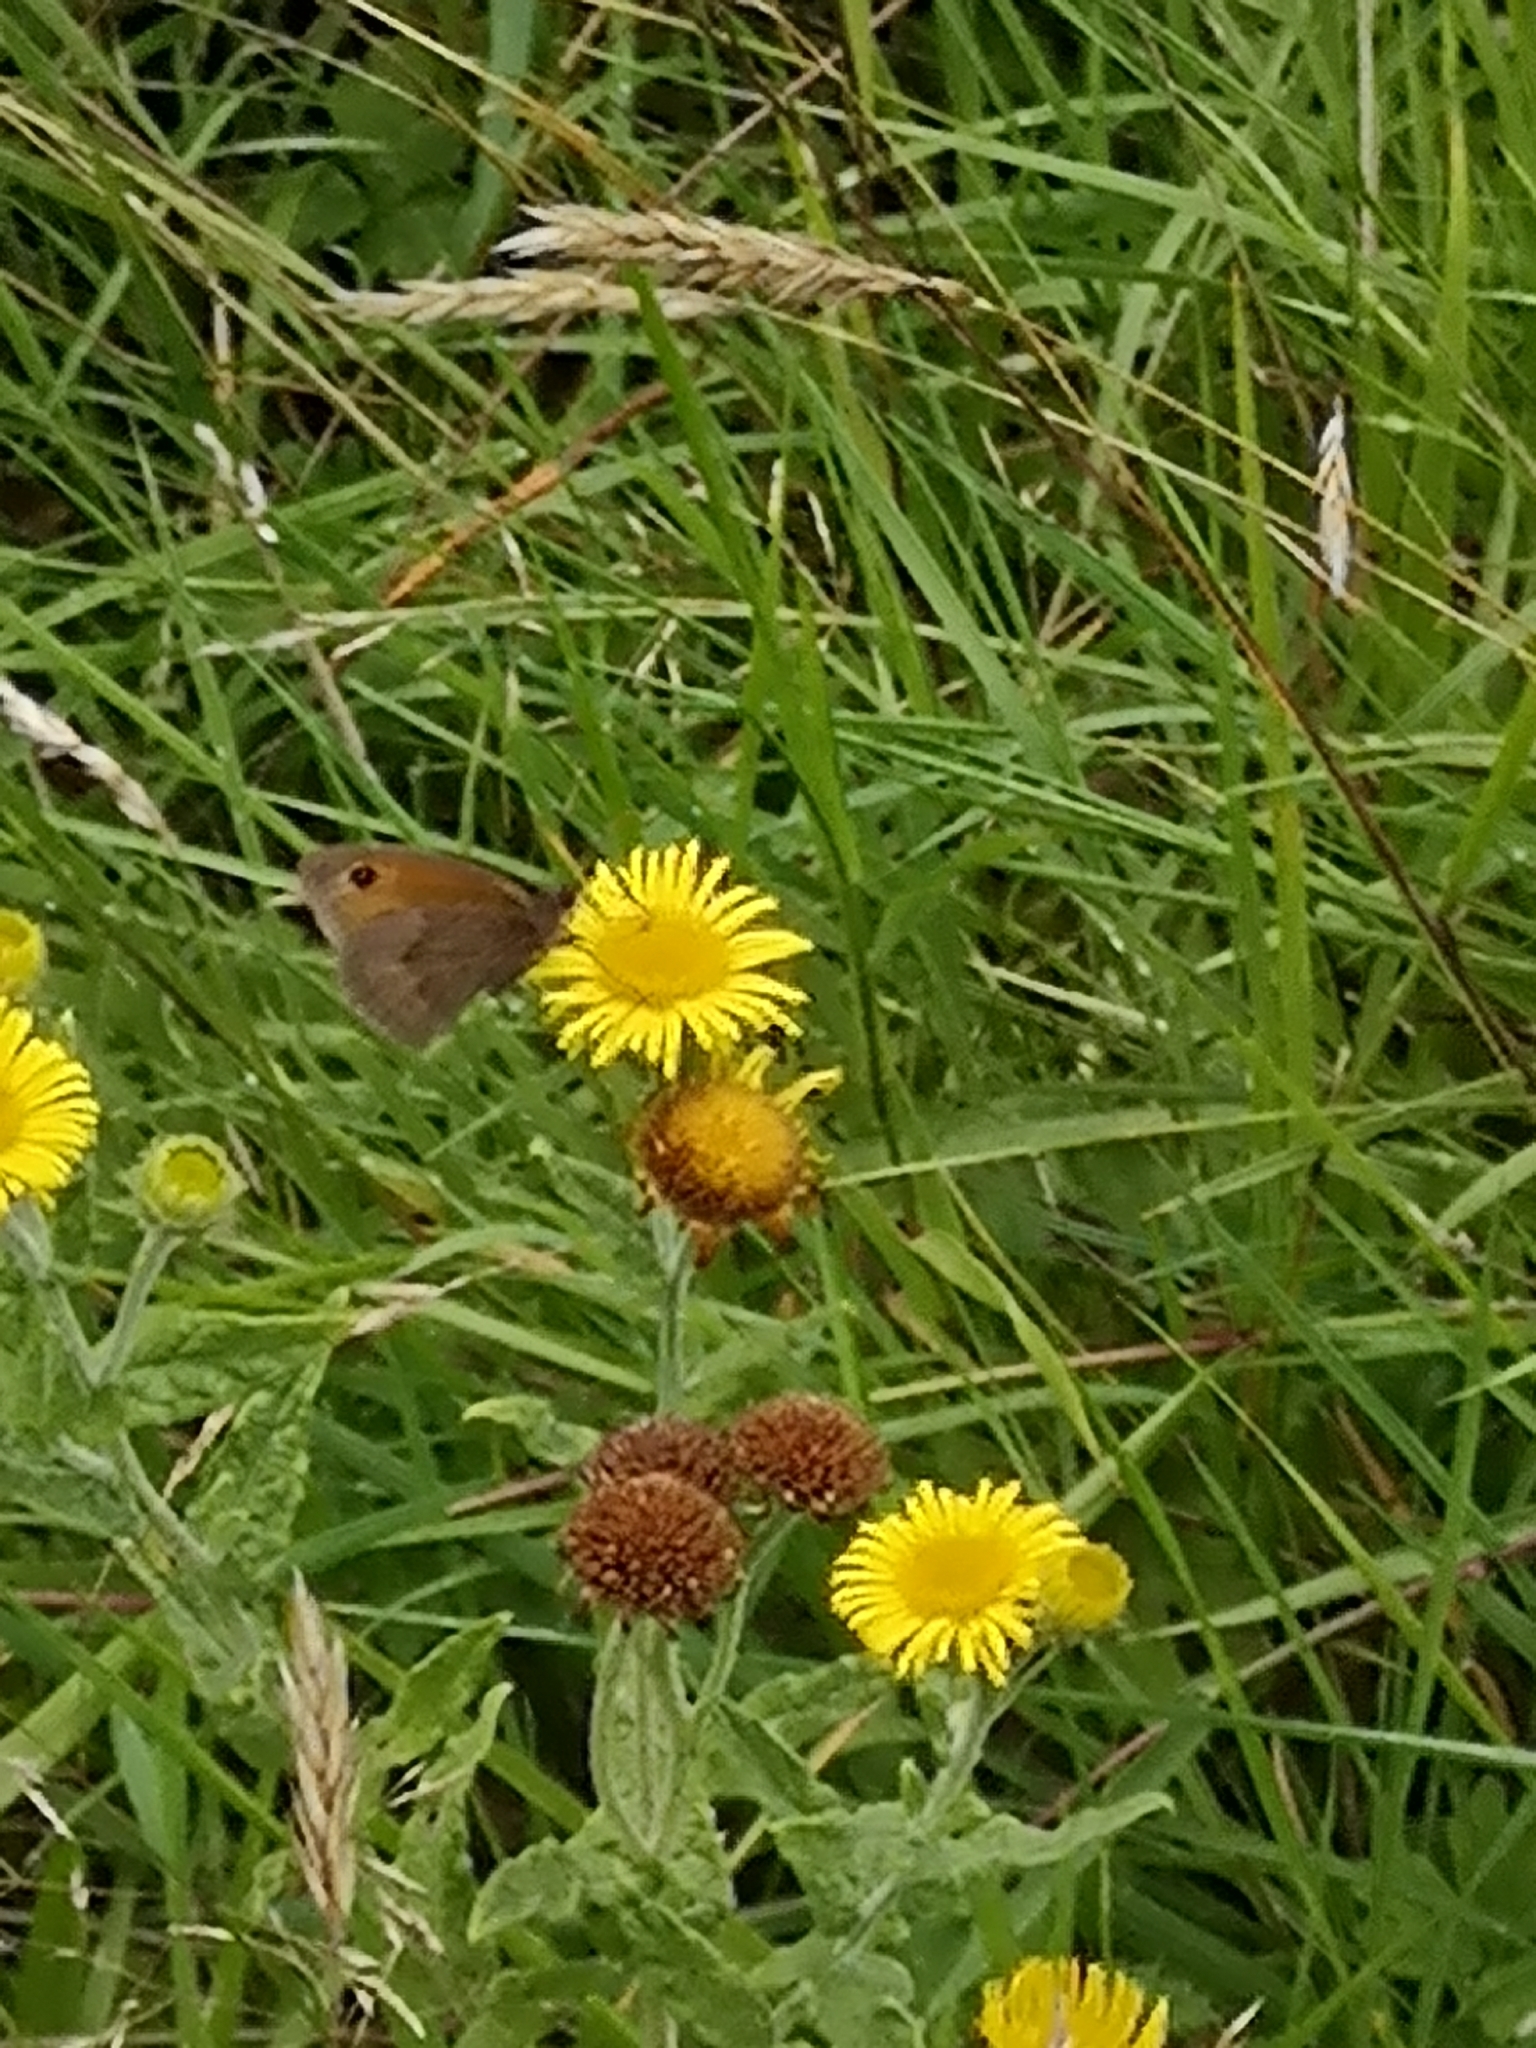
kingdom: Animalia
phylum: Arthropoda
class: Insecta
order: Lepidoptera
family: Nymphalidae
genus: Maniola
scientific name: Maniola jurtina
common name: Meadow brown
